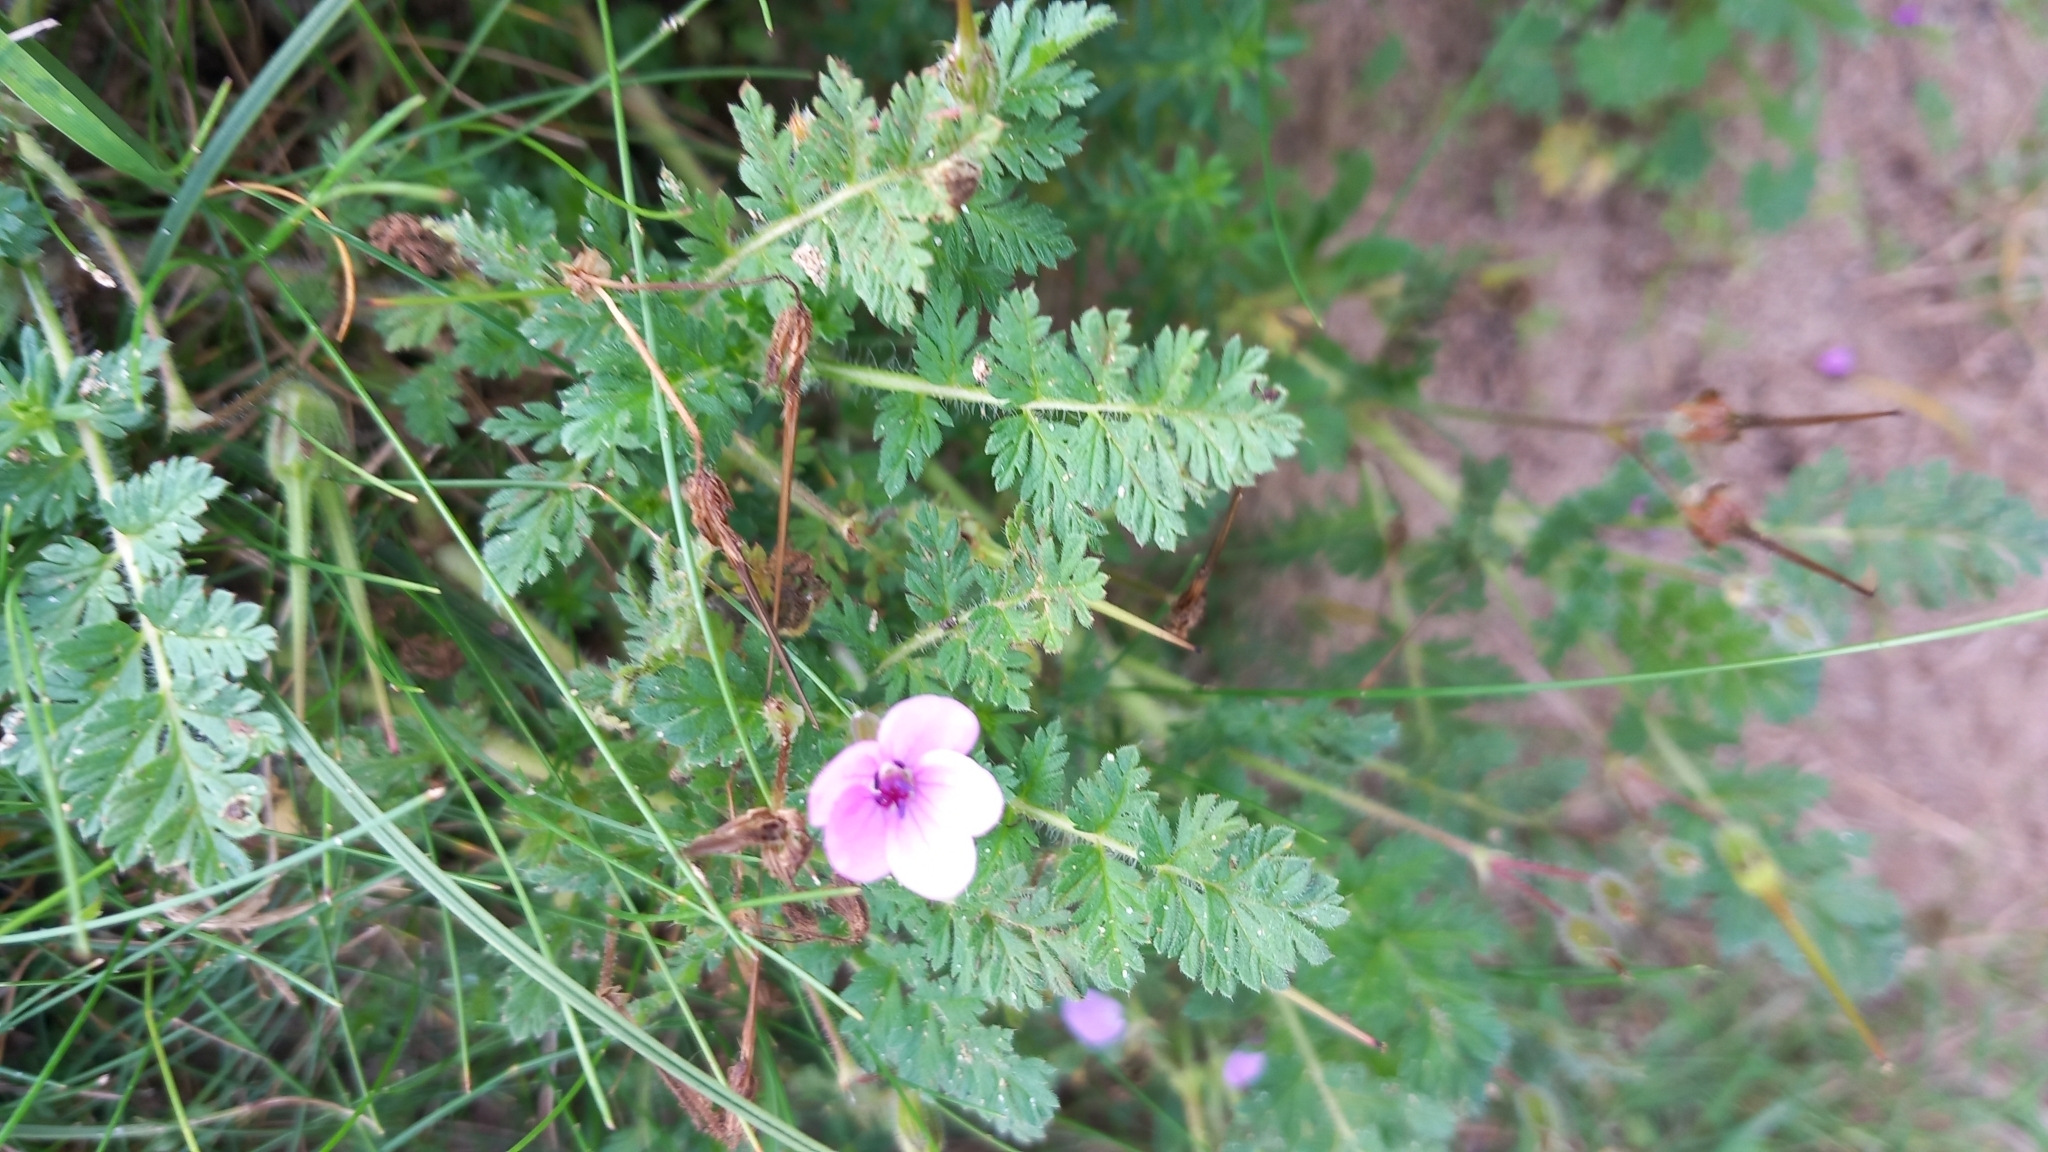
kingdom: Plantae
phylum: Tracheophyta
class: Magnoliopsida
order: Geraniales
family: Geraniaceae
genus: Erodium
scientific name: Erodium cicutarium
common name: Common stork's-bill
